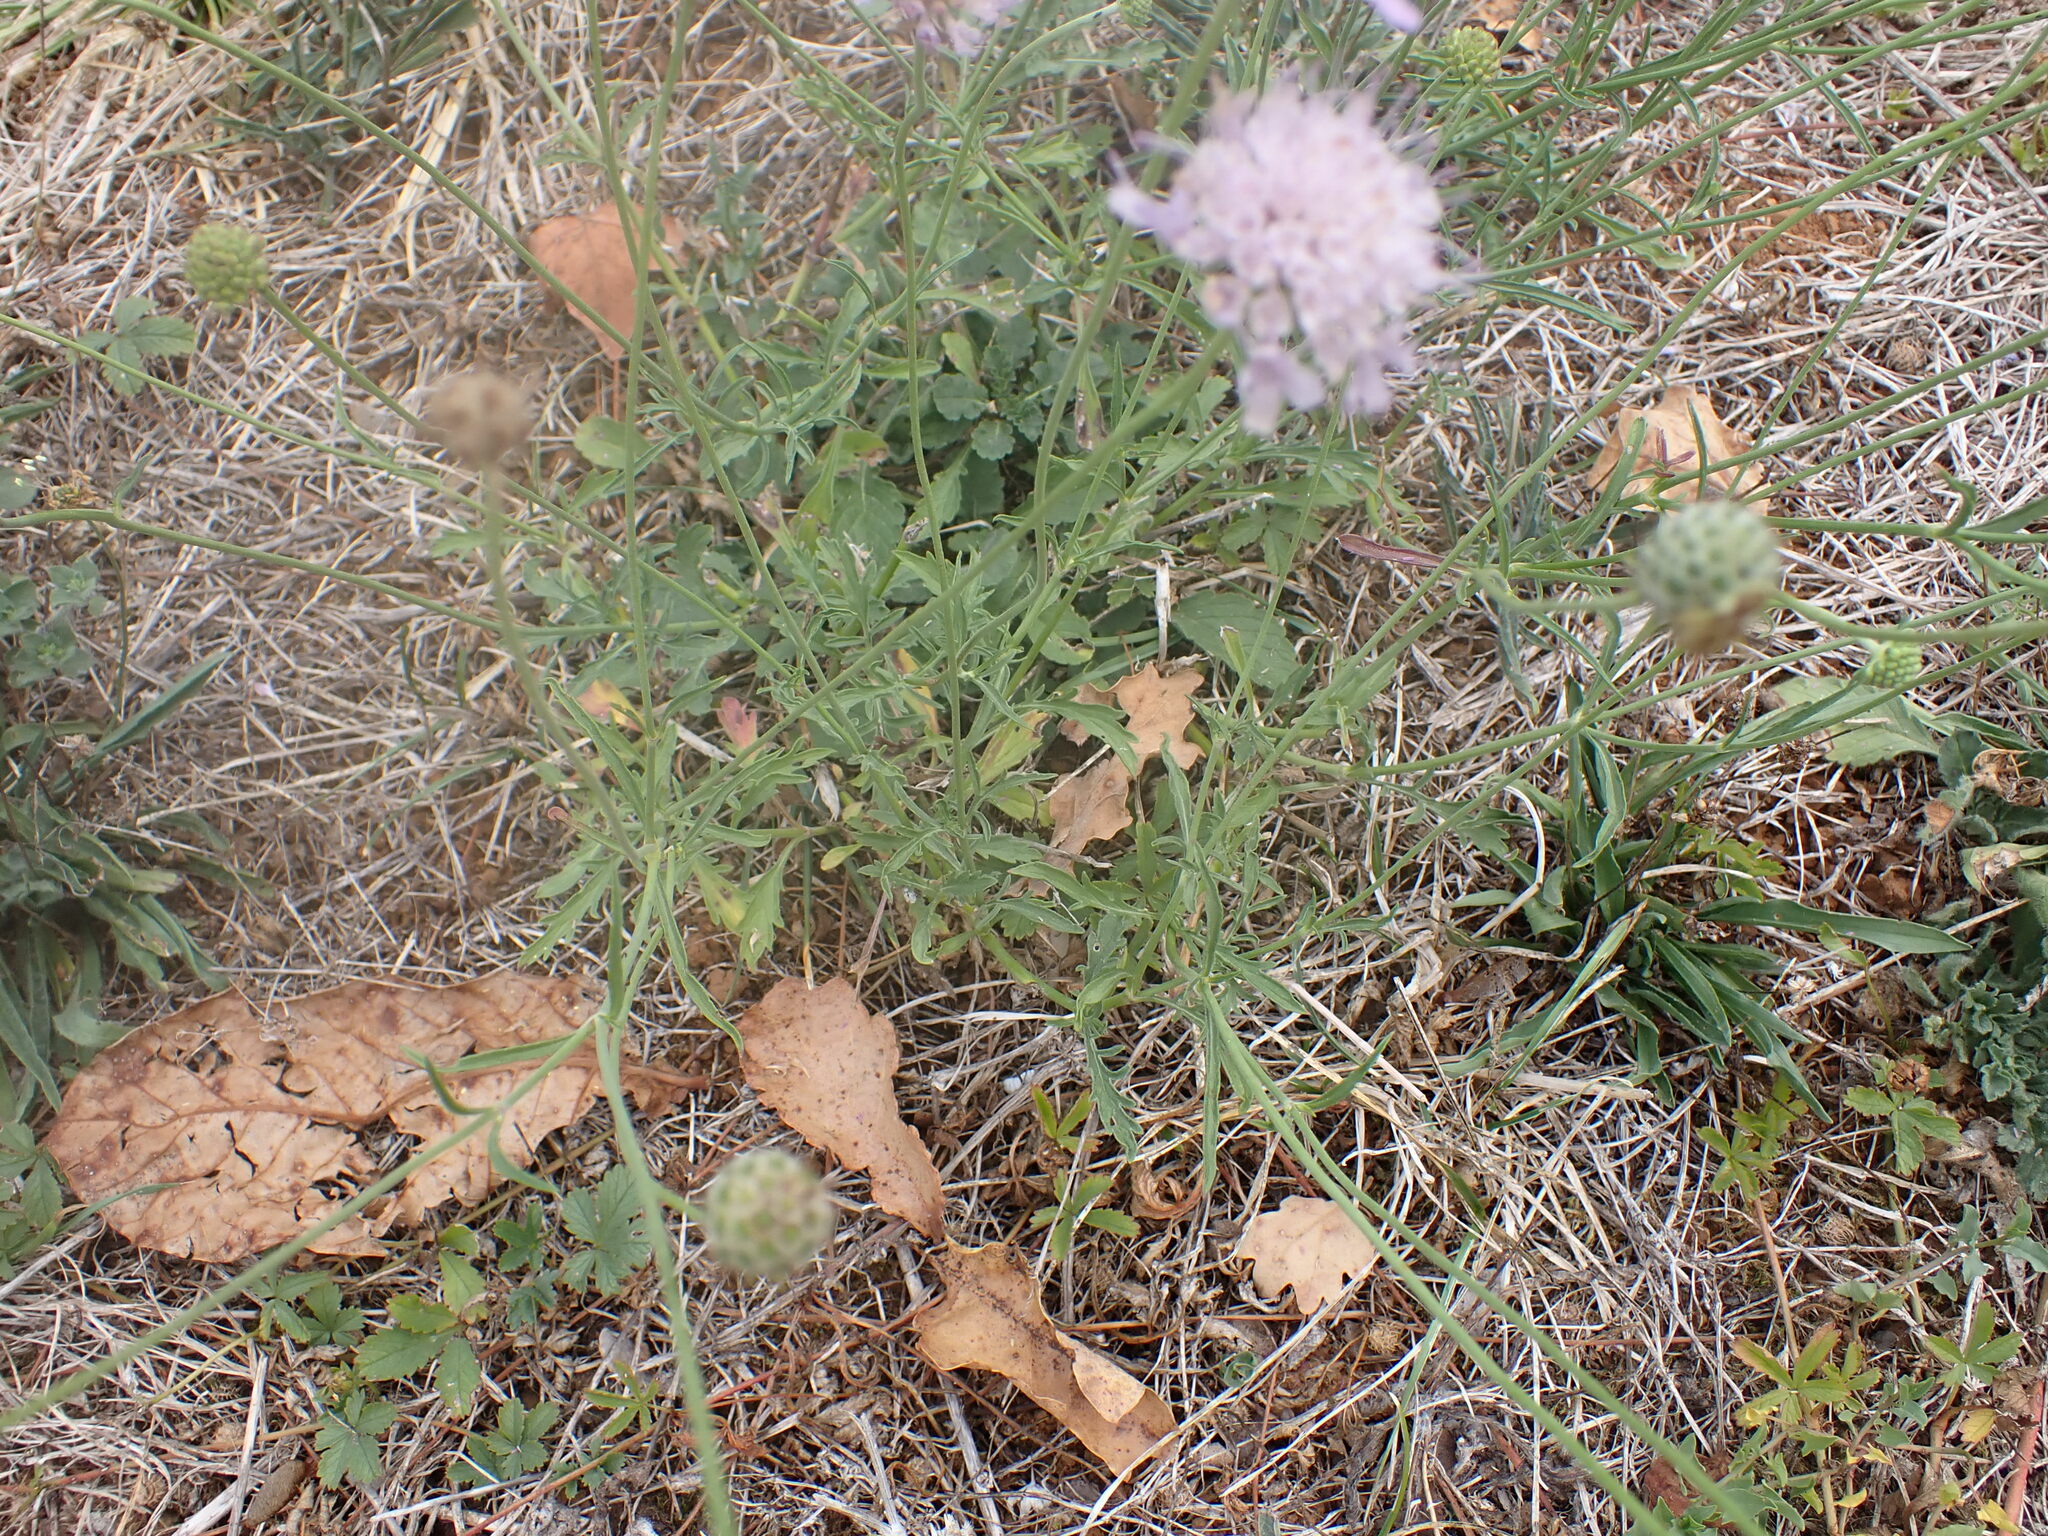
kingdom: Plantae
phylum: Tracheophyta
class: Magnoliopsida
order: Dipsacales
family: Caprifoliaceae
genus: Sixalix
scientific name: Sixalix atropurpurea
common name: Sweet scabious
